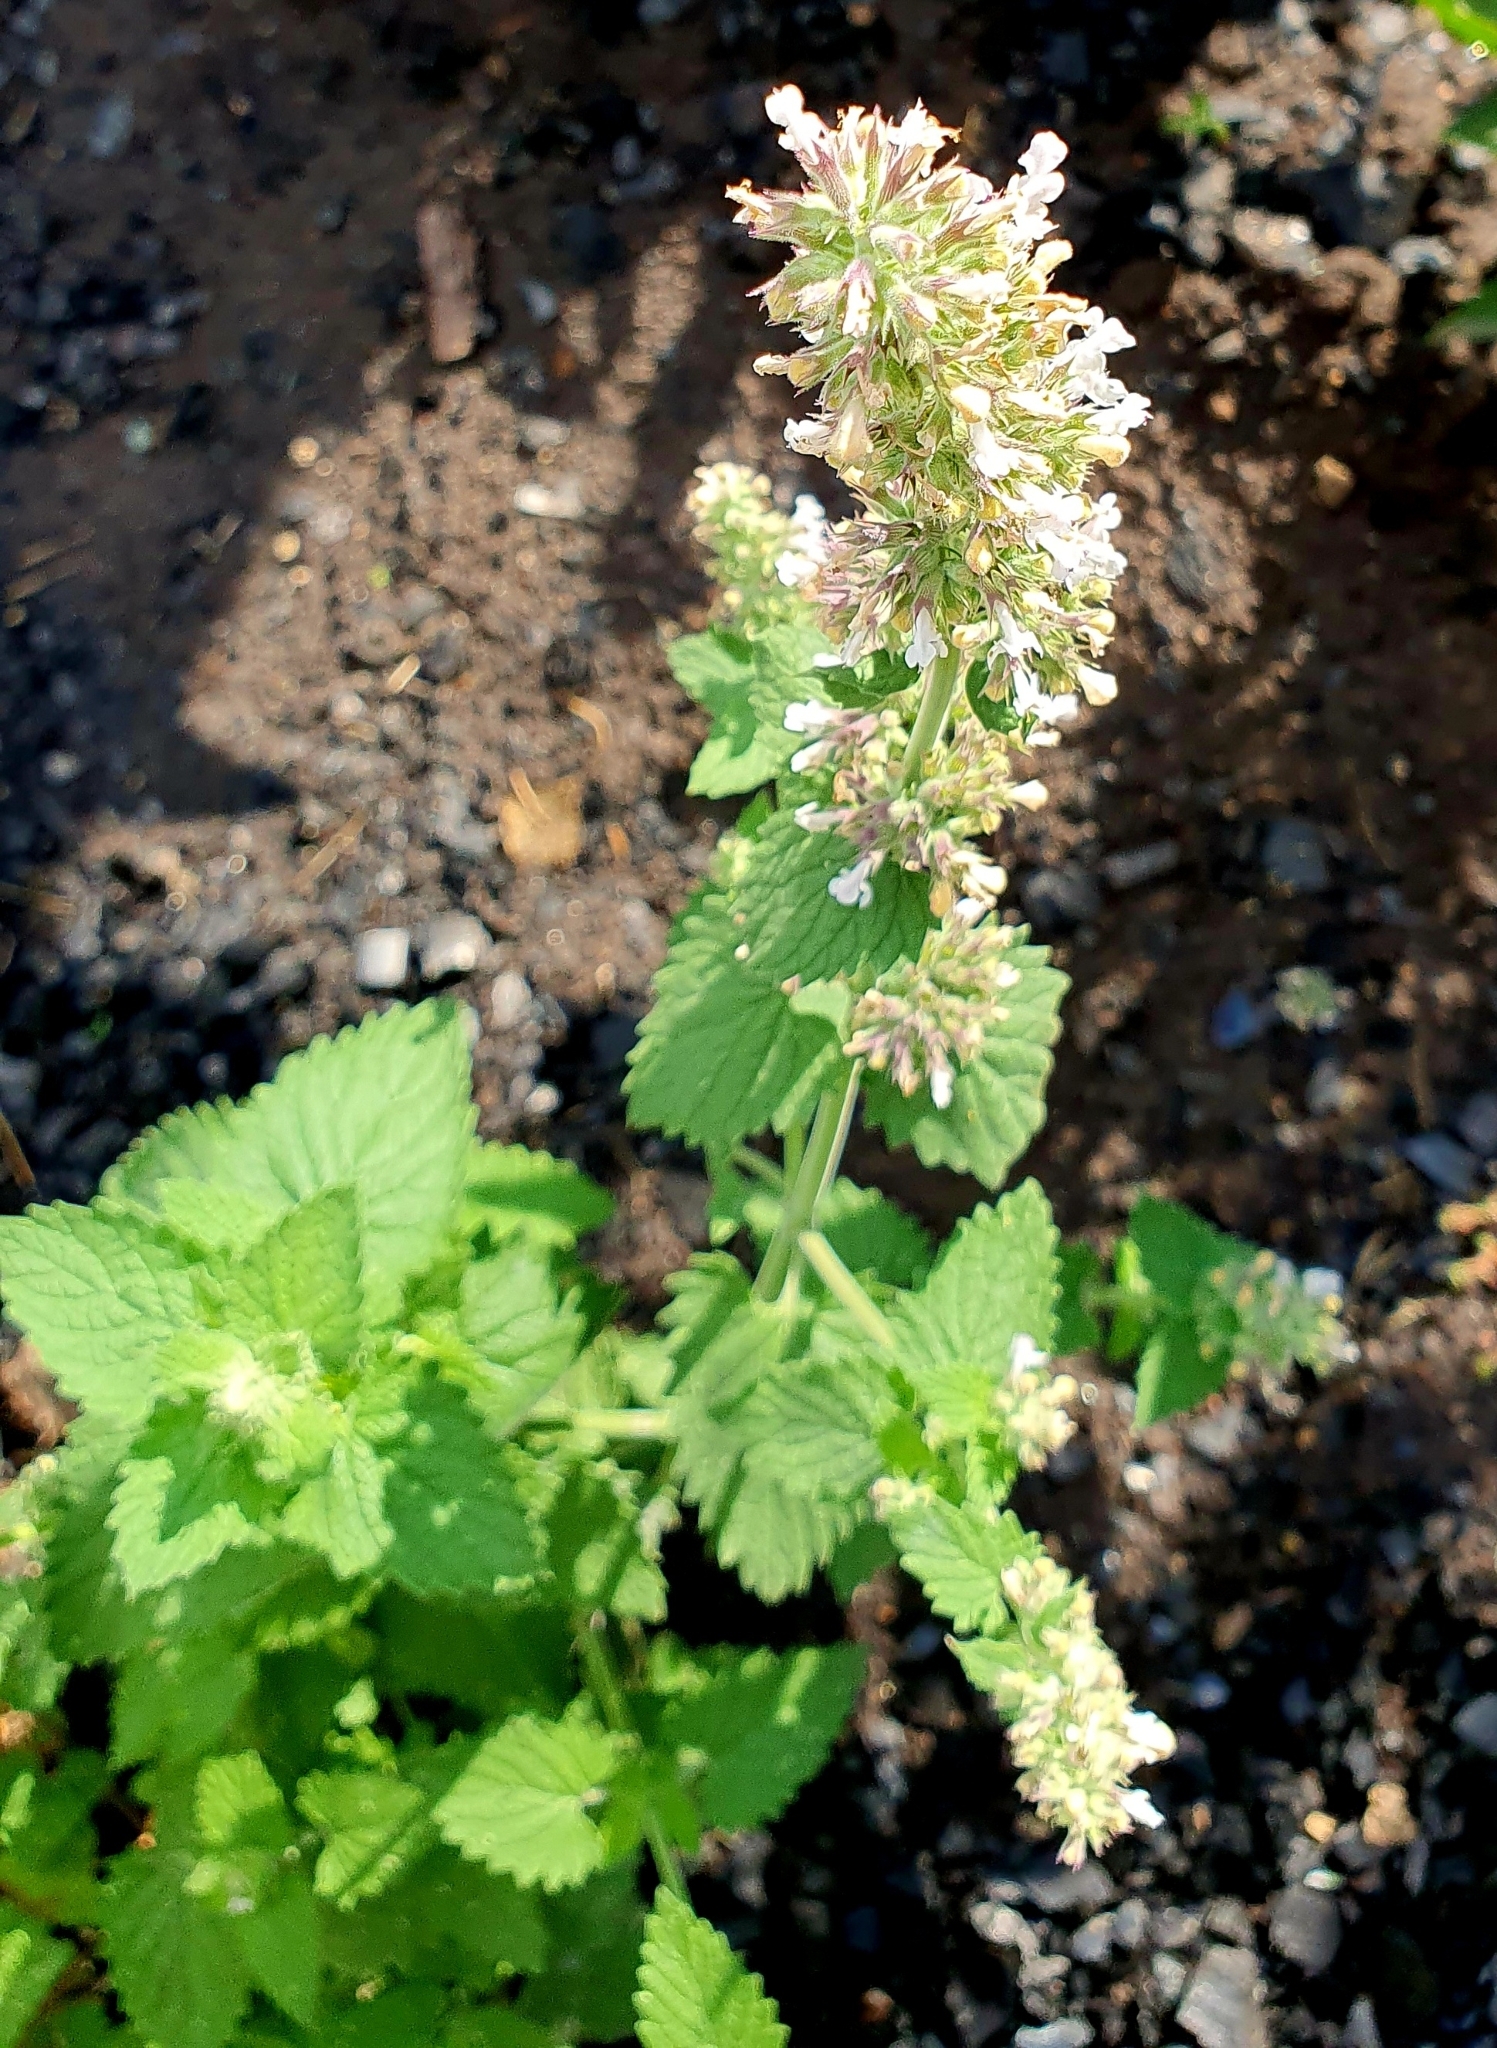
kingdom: Plantae
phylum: Tracheophyta
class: Magnoliopsida
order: Lamiales
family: Lamiaceae
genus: Nepeta
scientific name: Nepeta cataria
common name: Catnip
